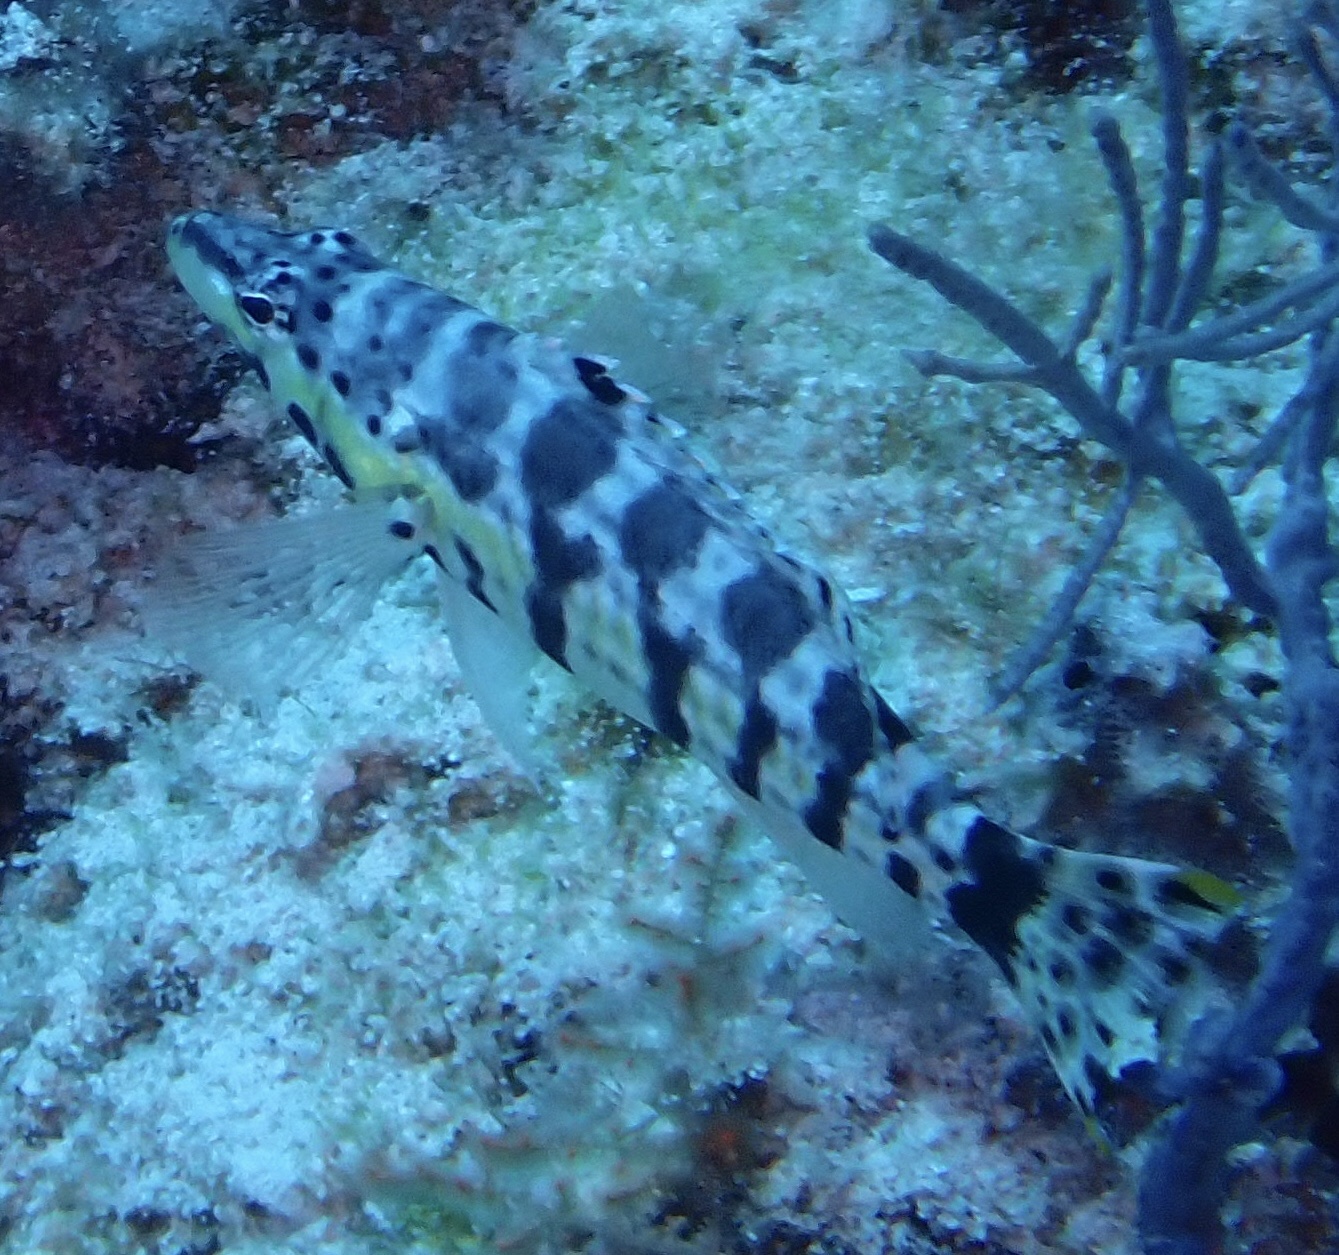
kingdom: Animalia
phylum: Chordata
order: Perciformes
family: Serranidae
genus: Serranus
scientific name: Serranus tigrinus
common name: Harlequin bass
